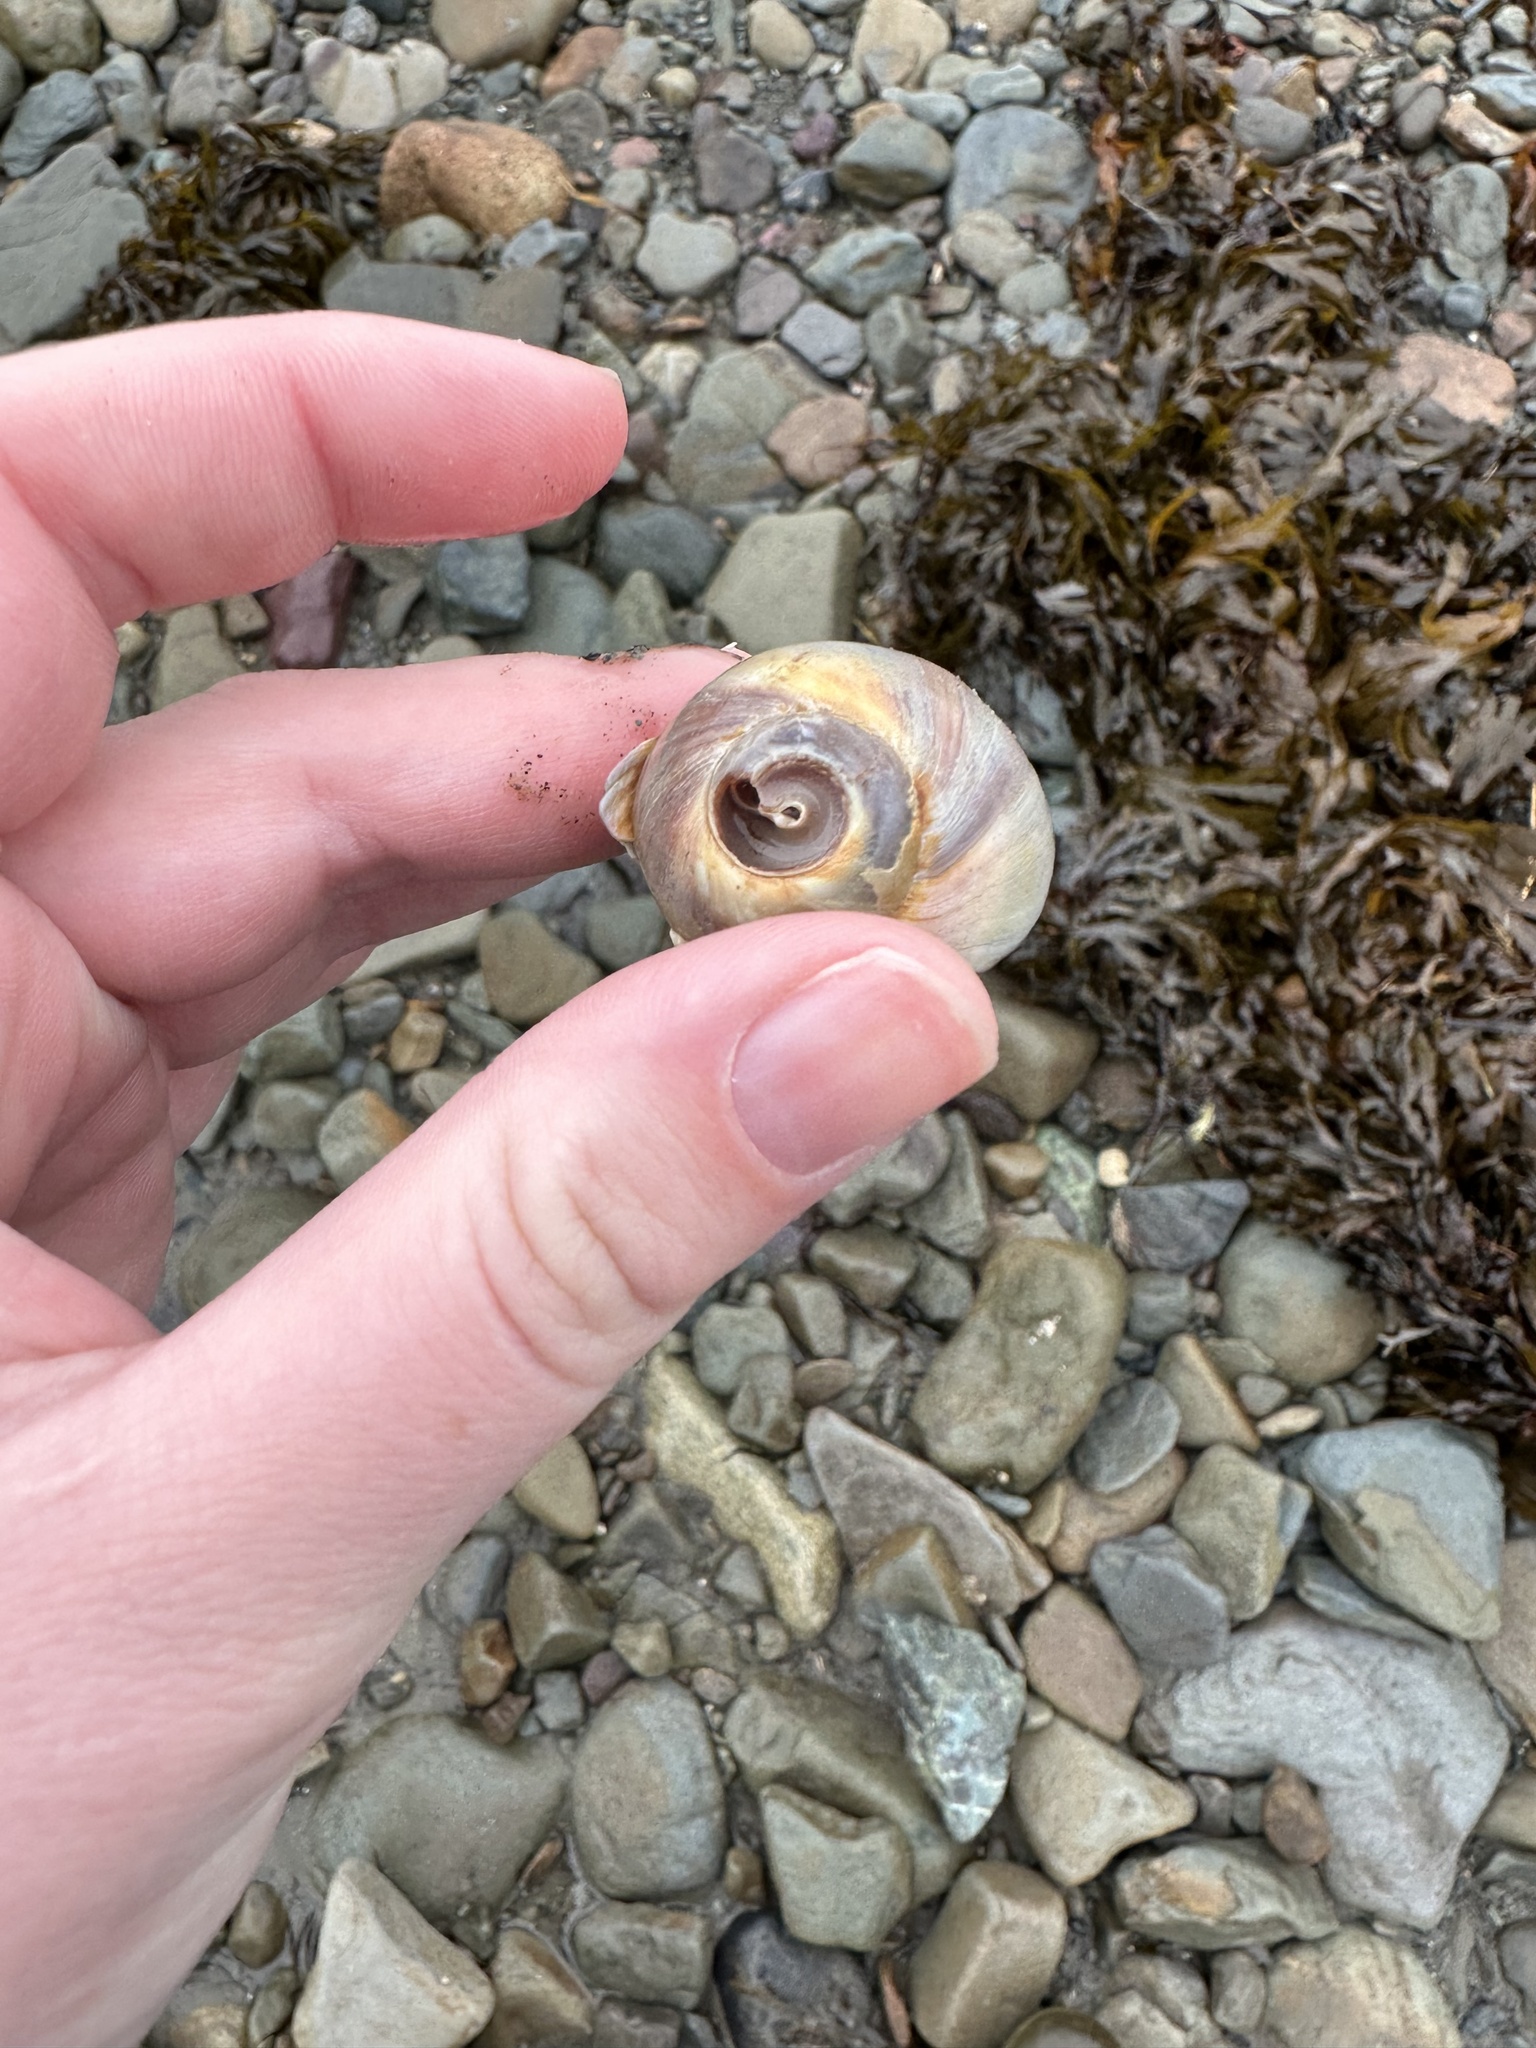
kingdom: Animalia
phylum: Mollusca
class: Gastropoda
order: Littorinimorpha
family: Naticidae
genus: Euspira
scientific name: Euspira heros
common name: Common northern moonsnail
